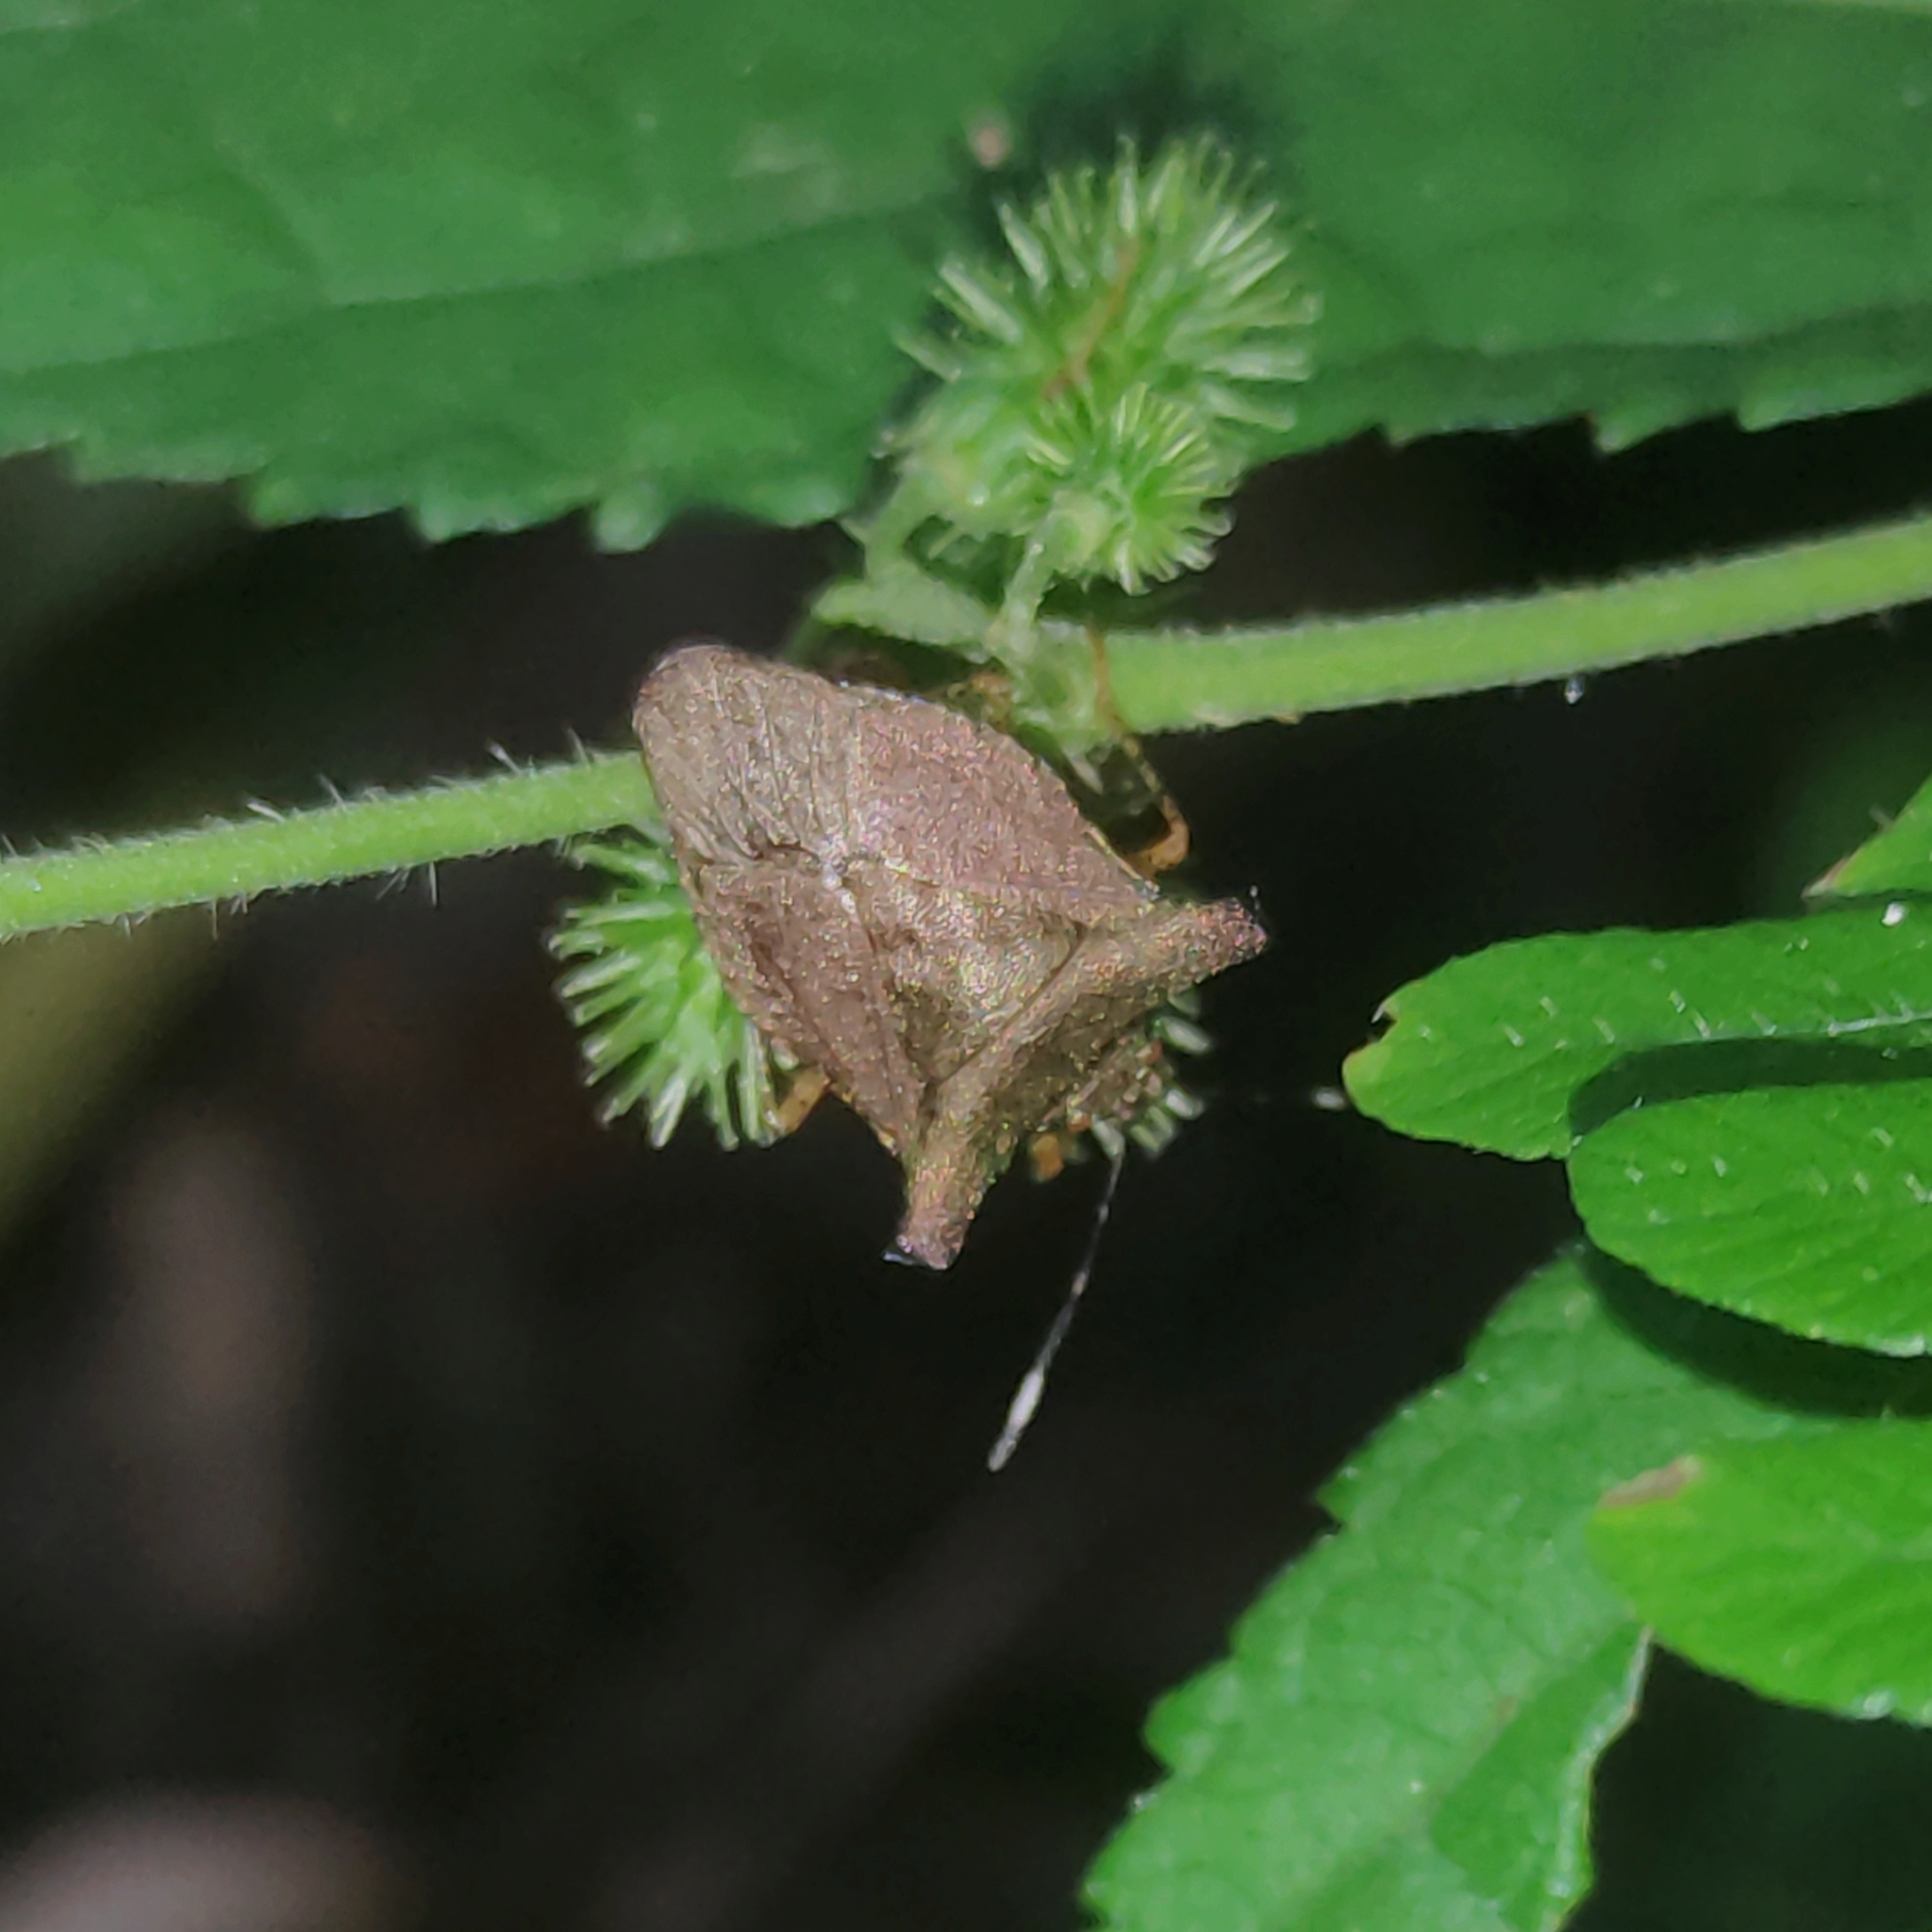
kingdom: Animalia
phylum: Arthropoda
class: Insecta
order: Hemiptera
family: Pentatomidae
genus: Adustonotus
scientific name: Adustonotus
